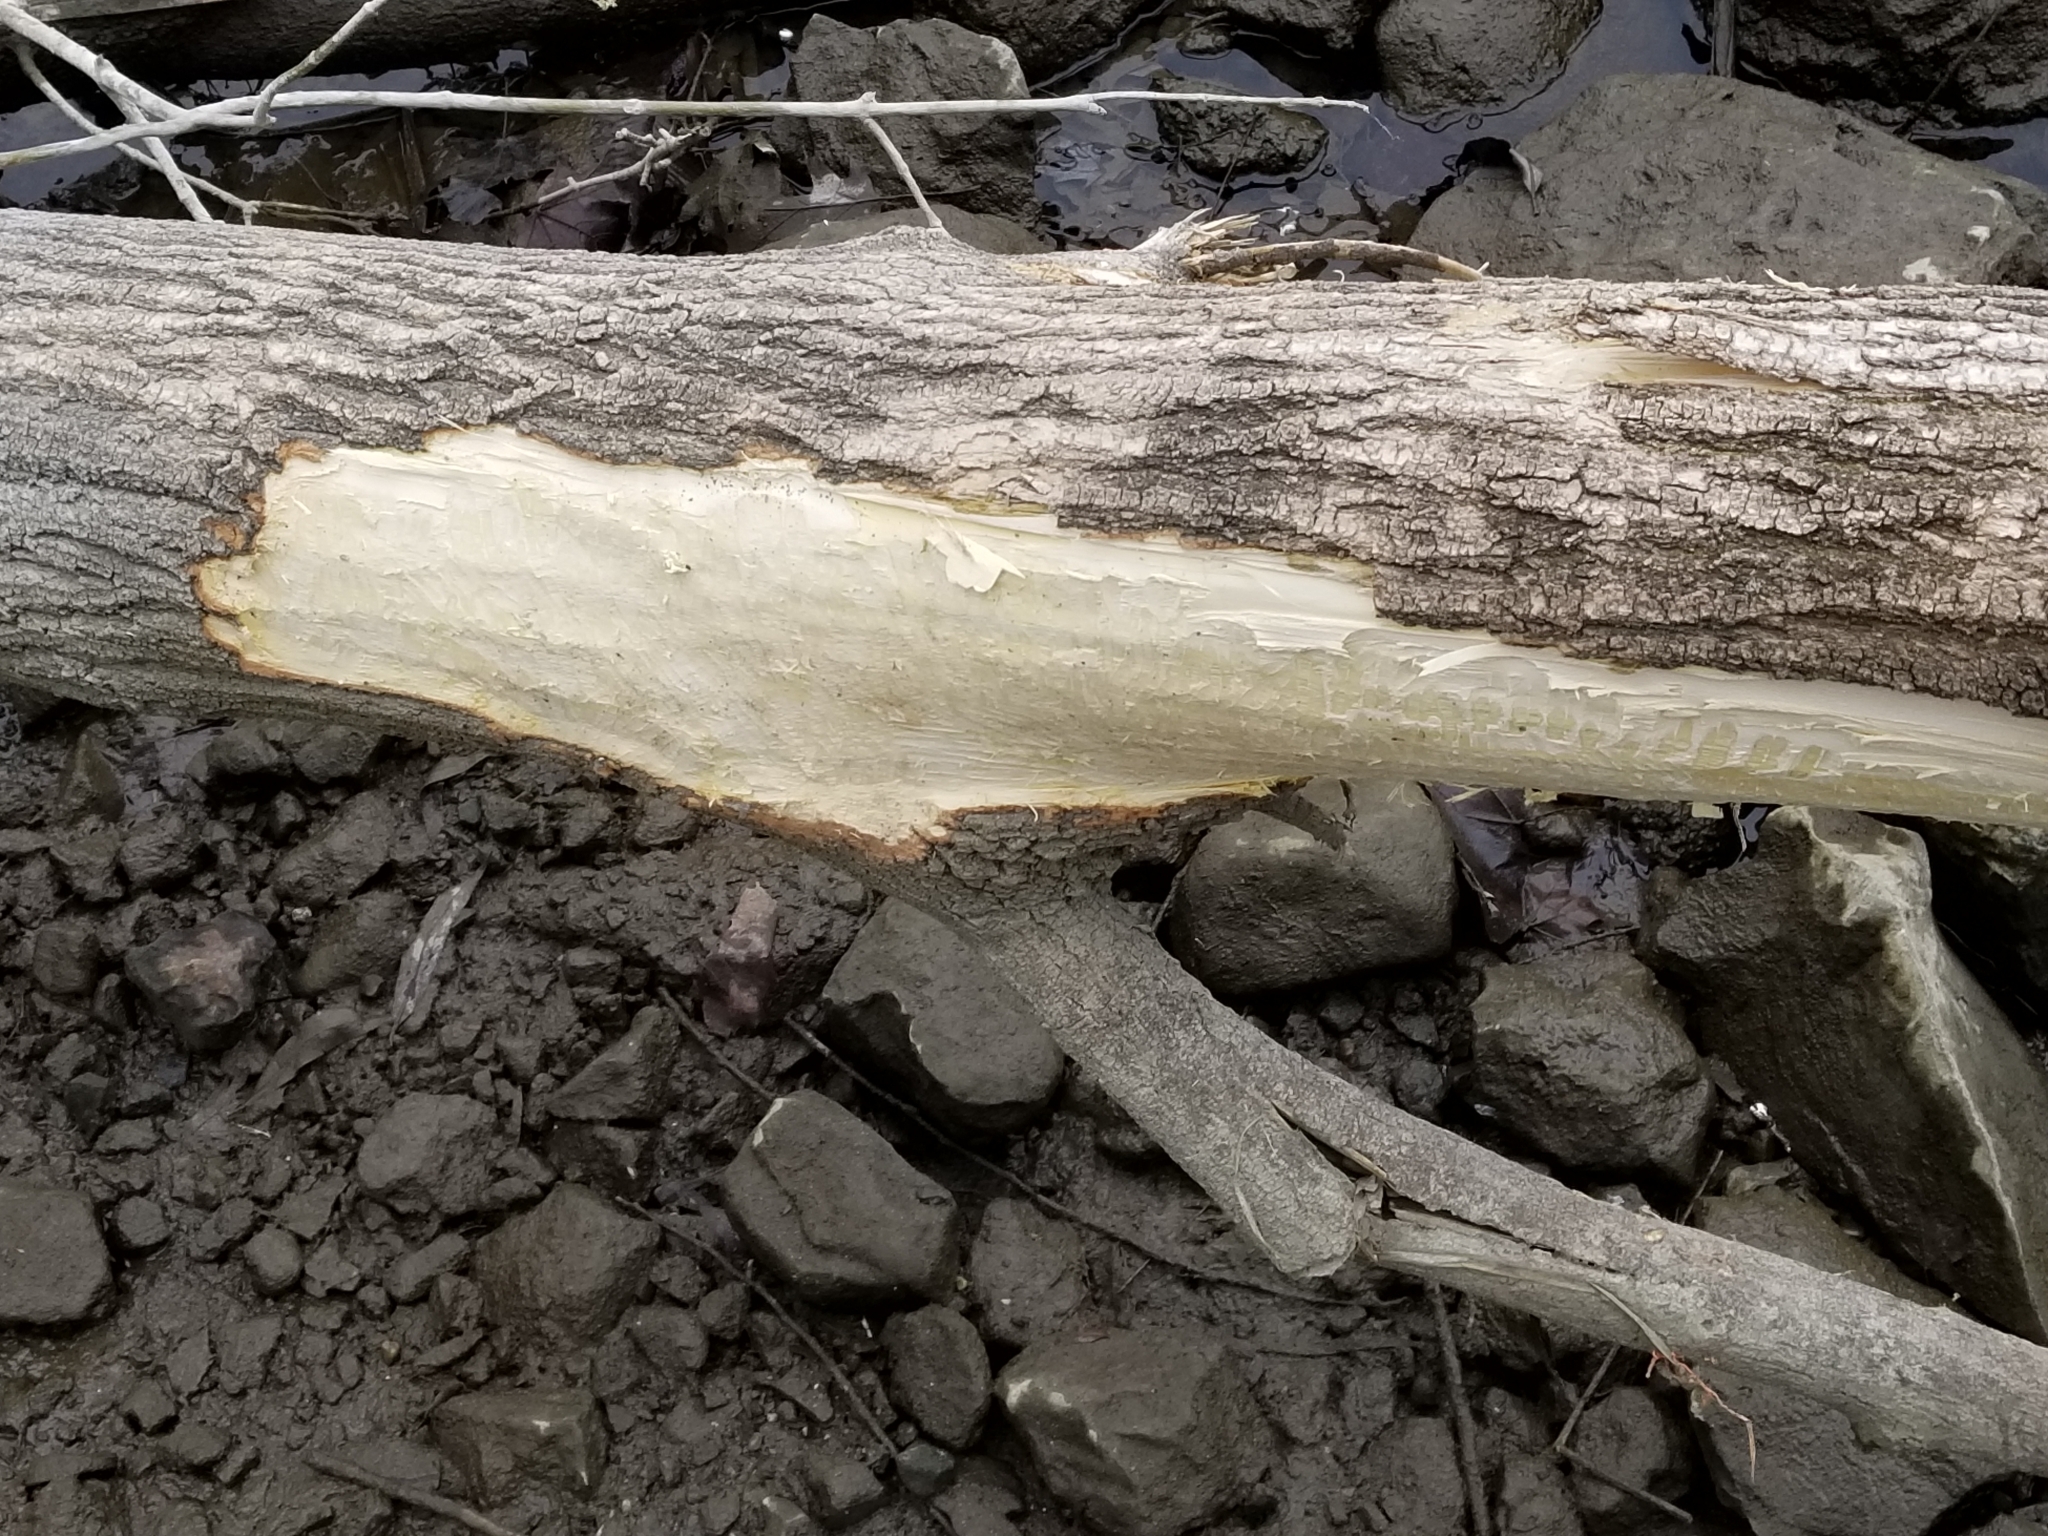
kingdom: Animalia
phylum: Chordata
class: Mammalia
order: Rodentia
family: Castoridae
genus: Castor
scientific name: Castor canadensis
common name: American beaver
